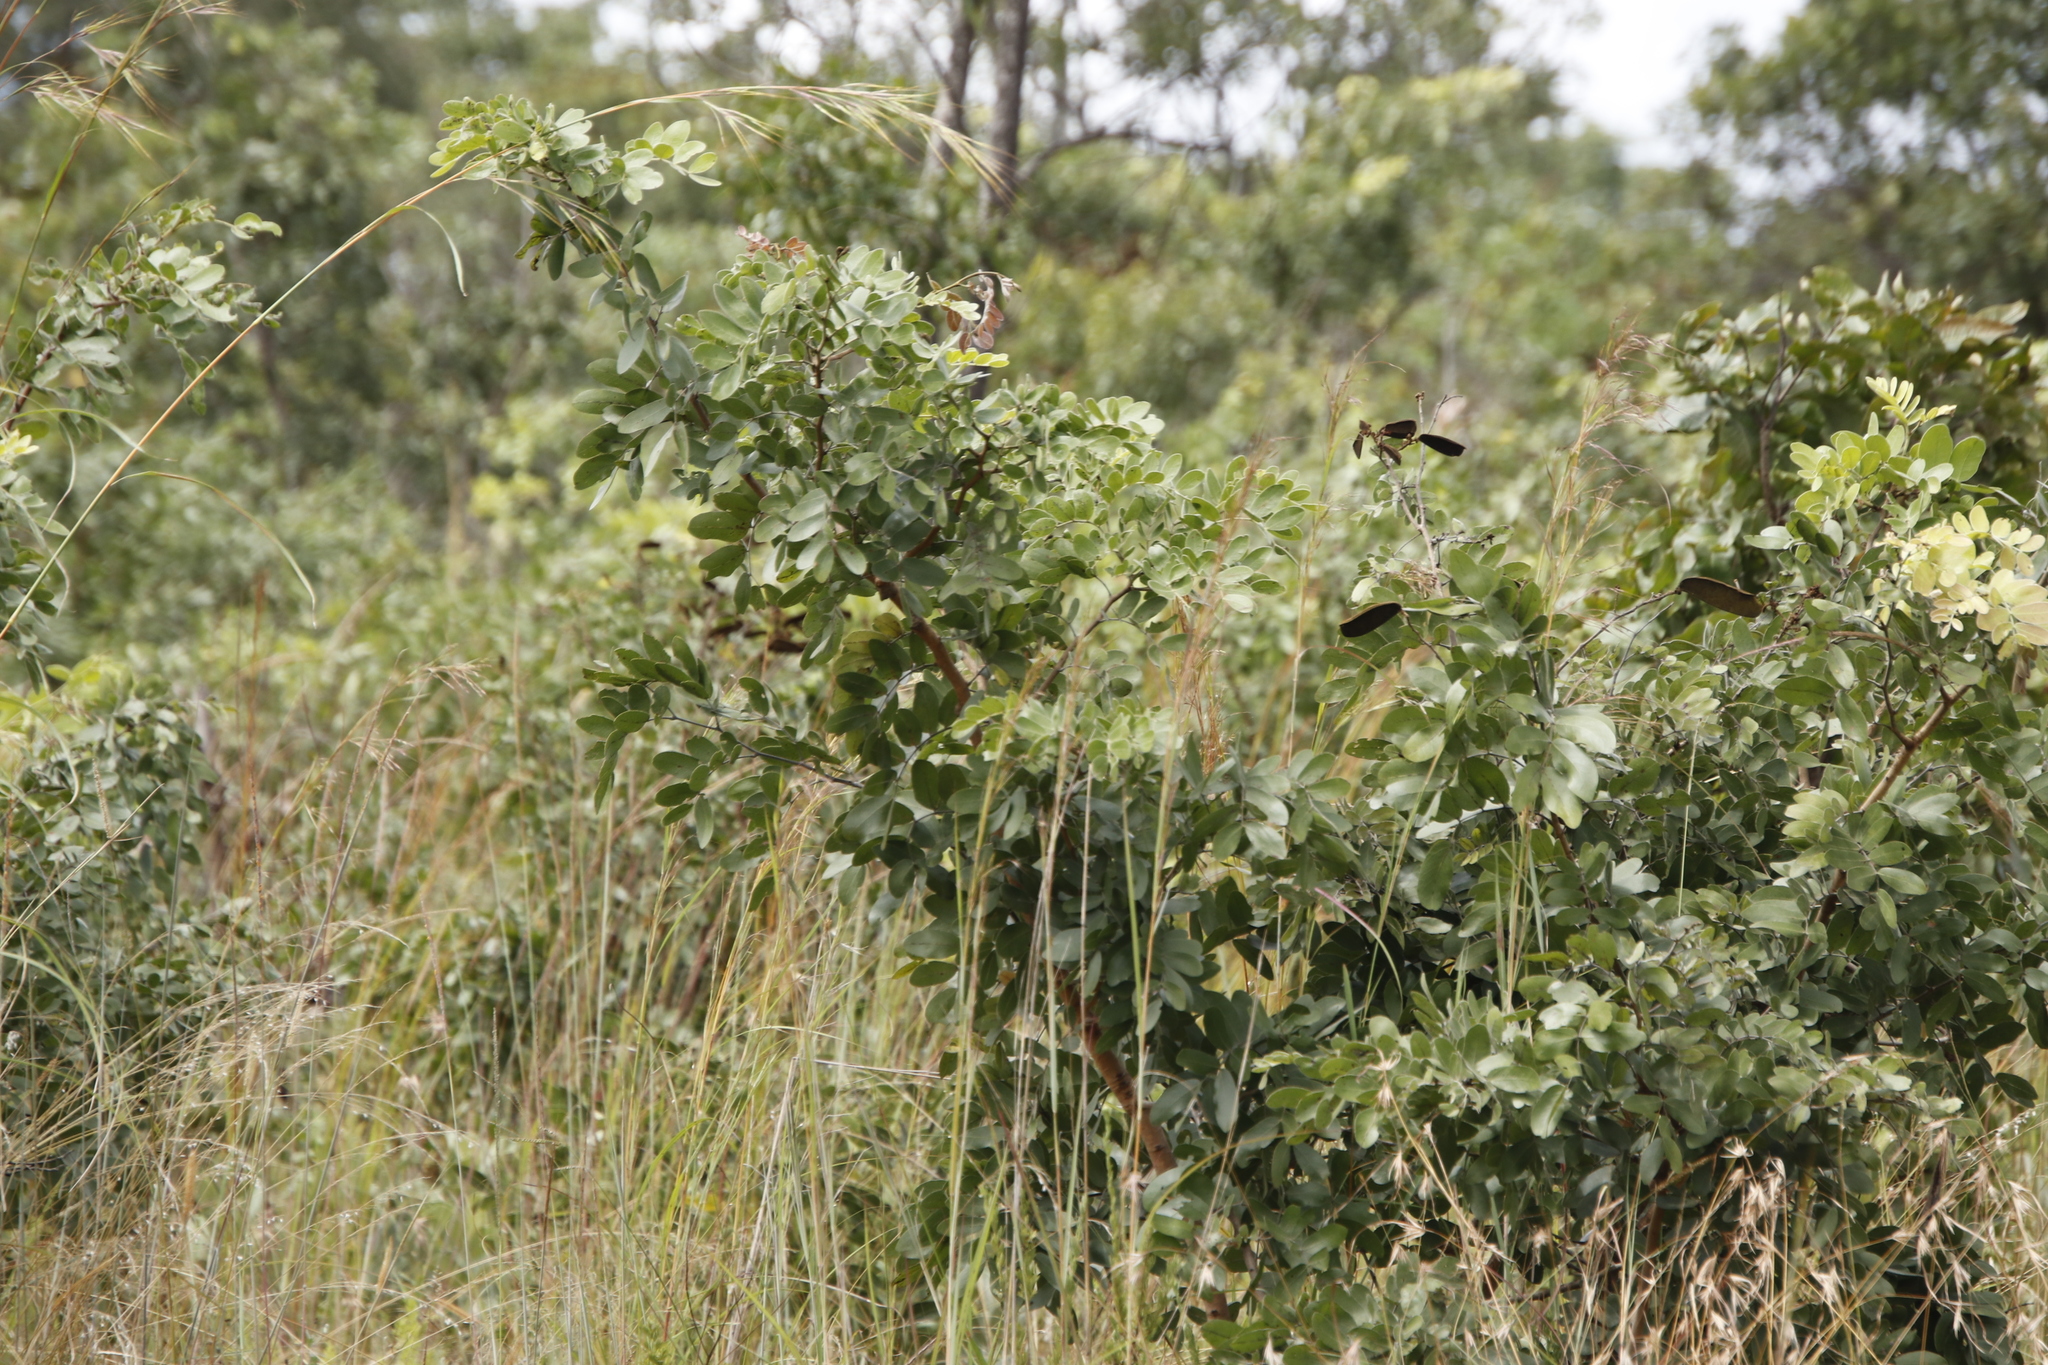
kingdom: Plantae
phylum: Tracheophyta
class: Magnoliopsida
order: Fabales
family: Fabaceae
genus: Julbernardia
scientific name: Julbernardia globiflora
